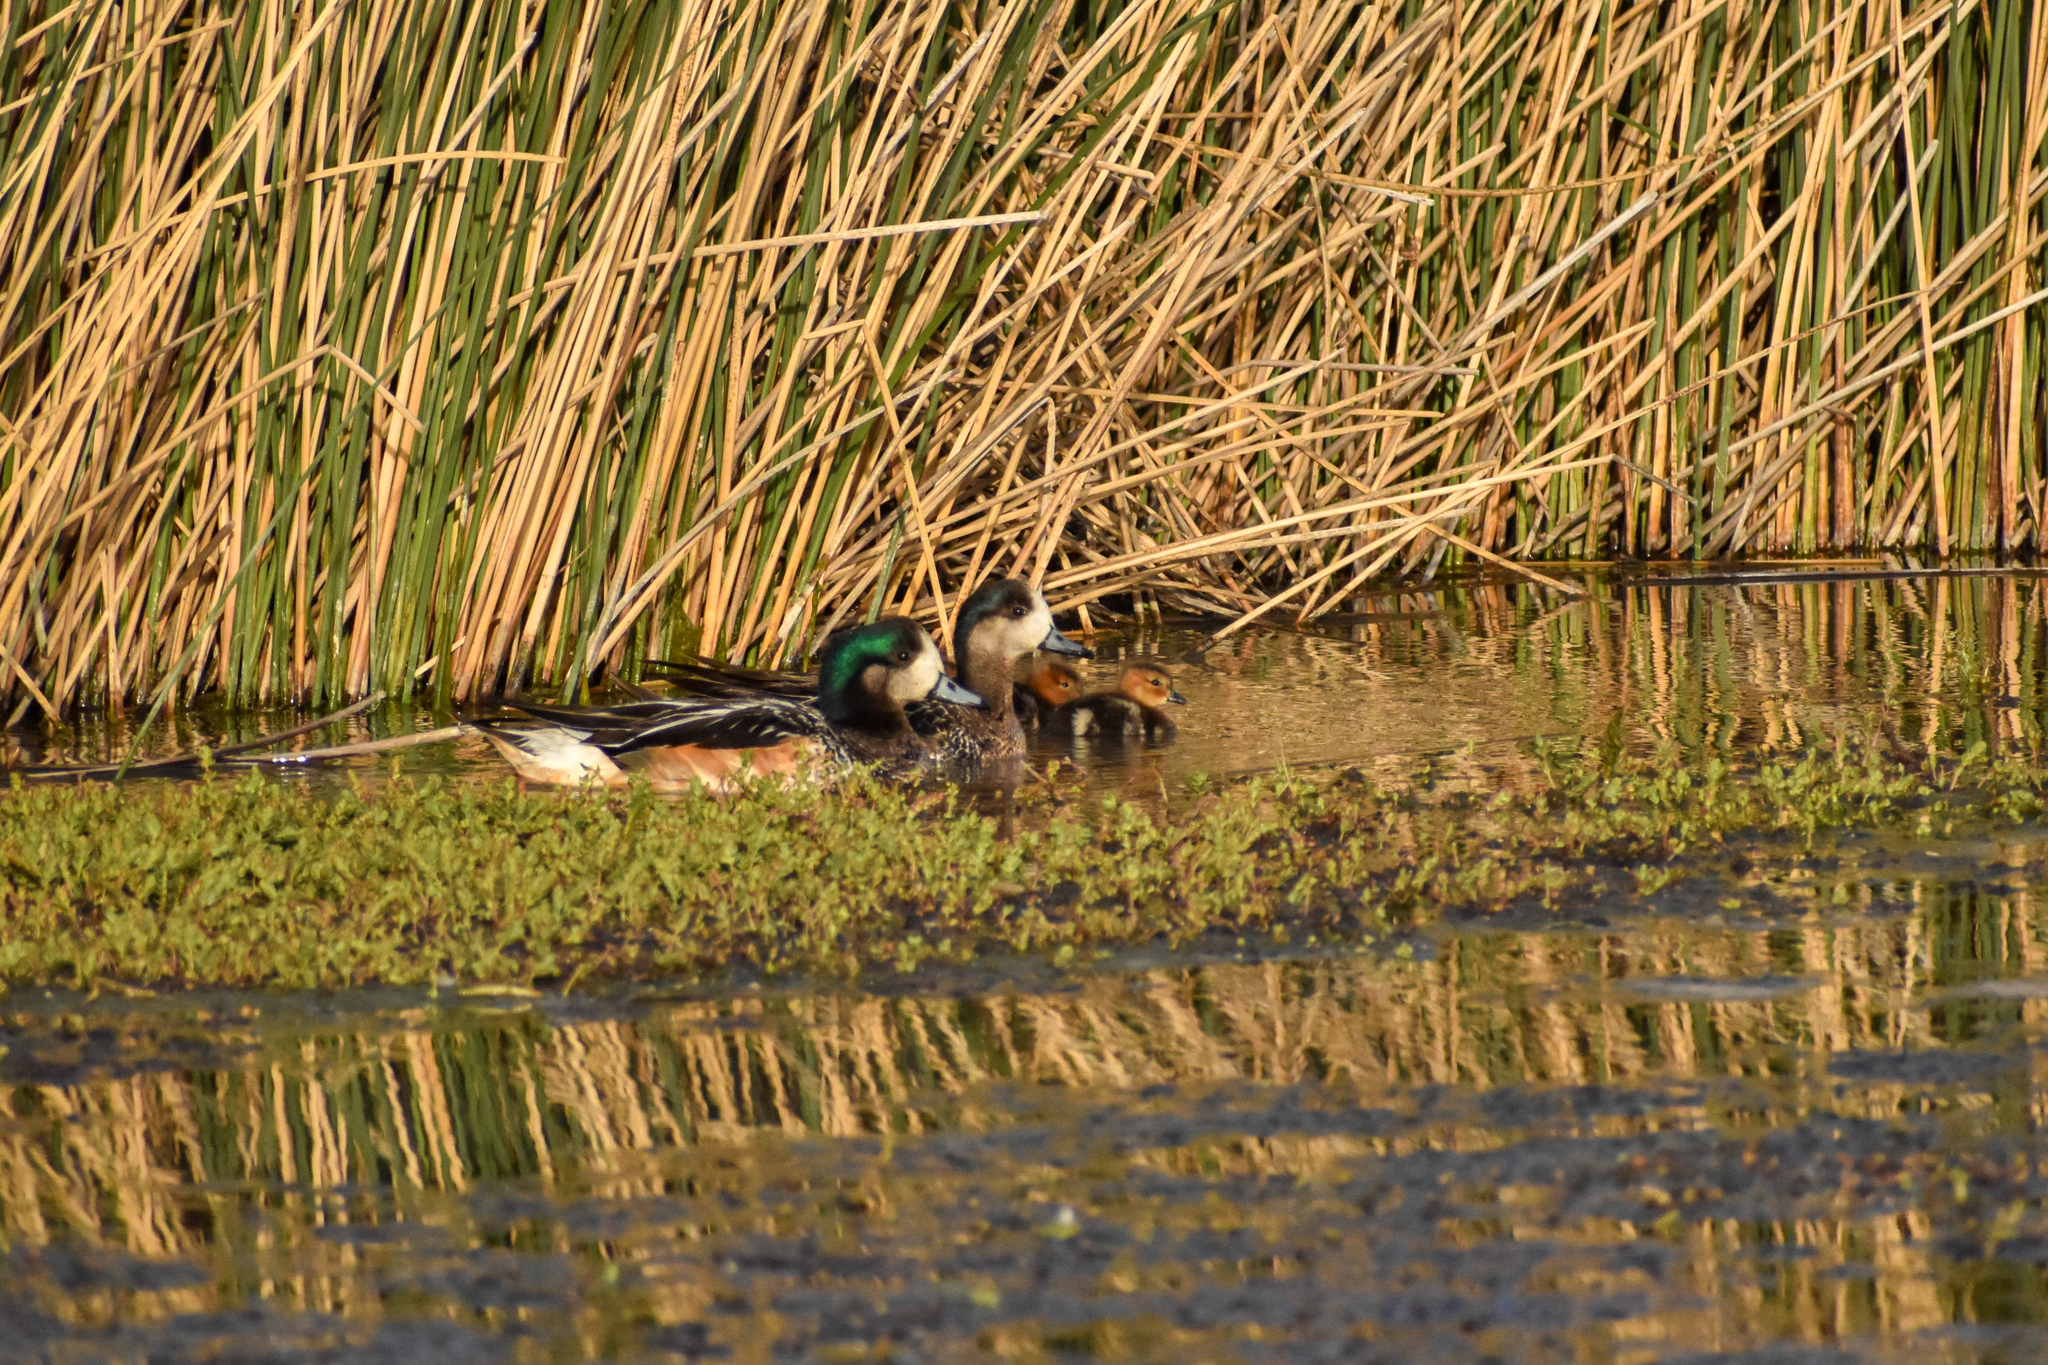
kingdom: Animalia
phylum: Chordata
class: Aves
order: Anseriformes
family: Anatidae
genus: Mareca
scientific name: Mareca sibilatrix
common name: Chiloe wigeon
